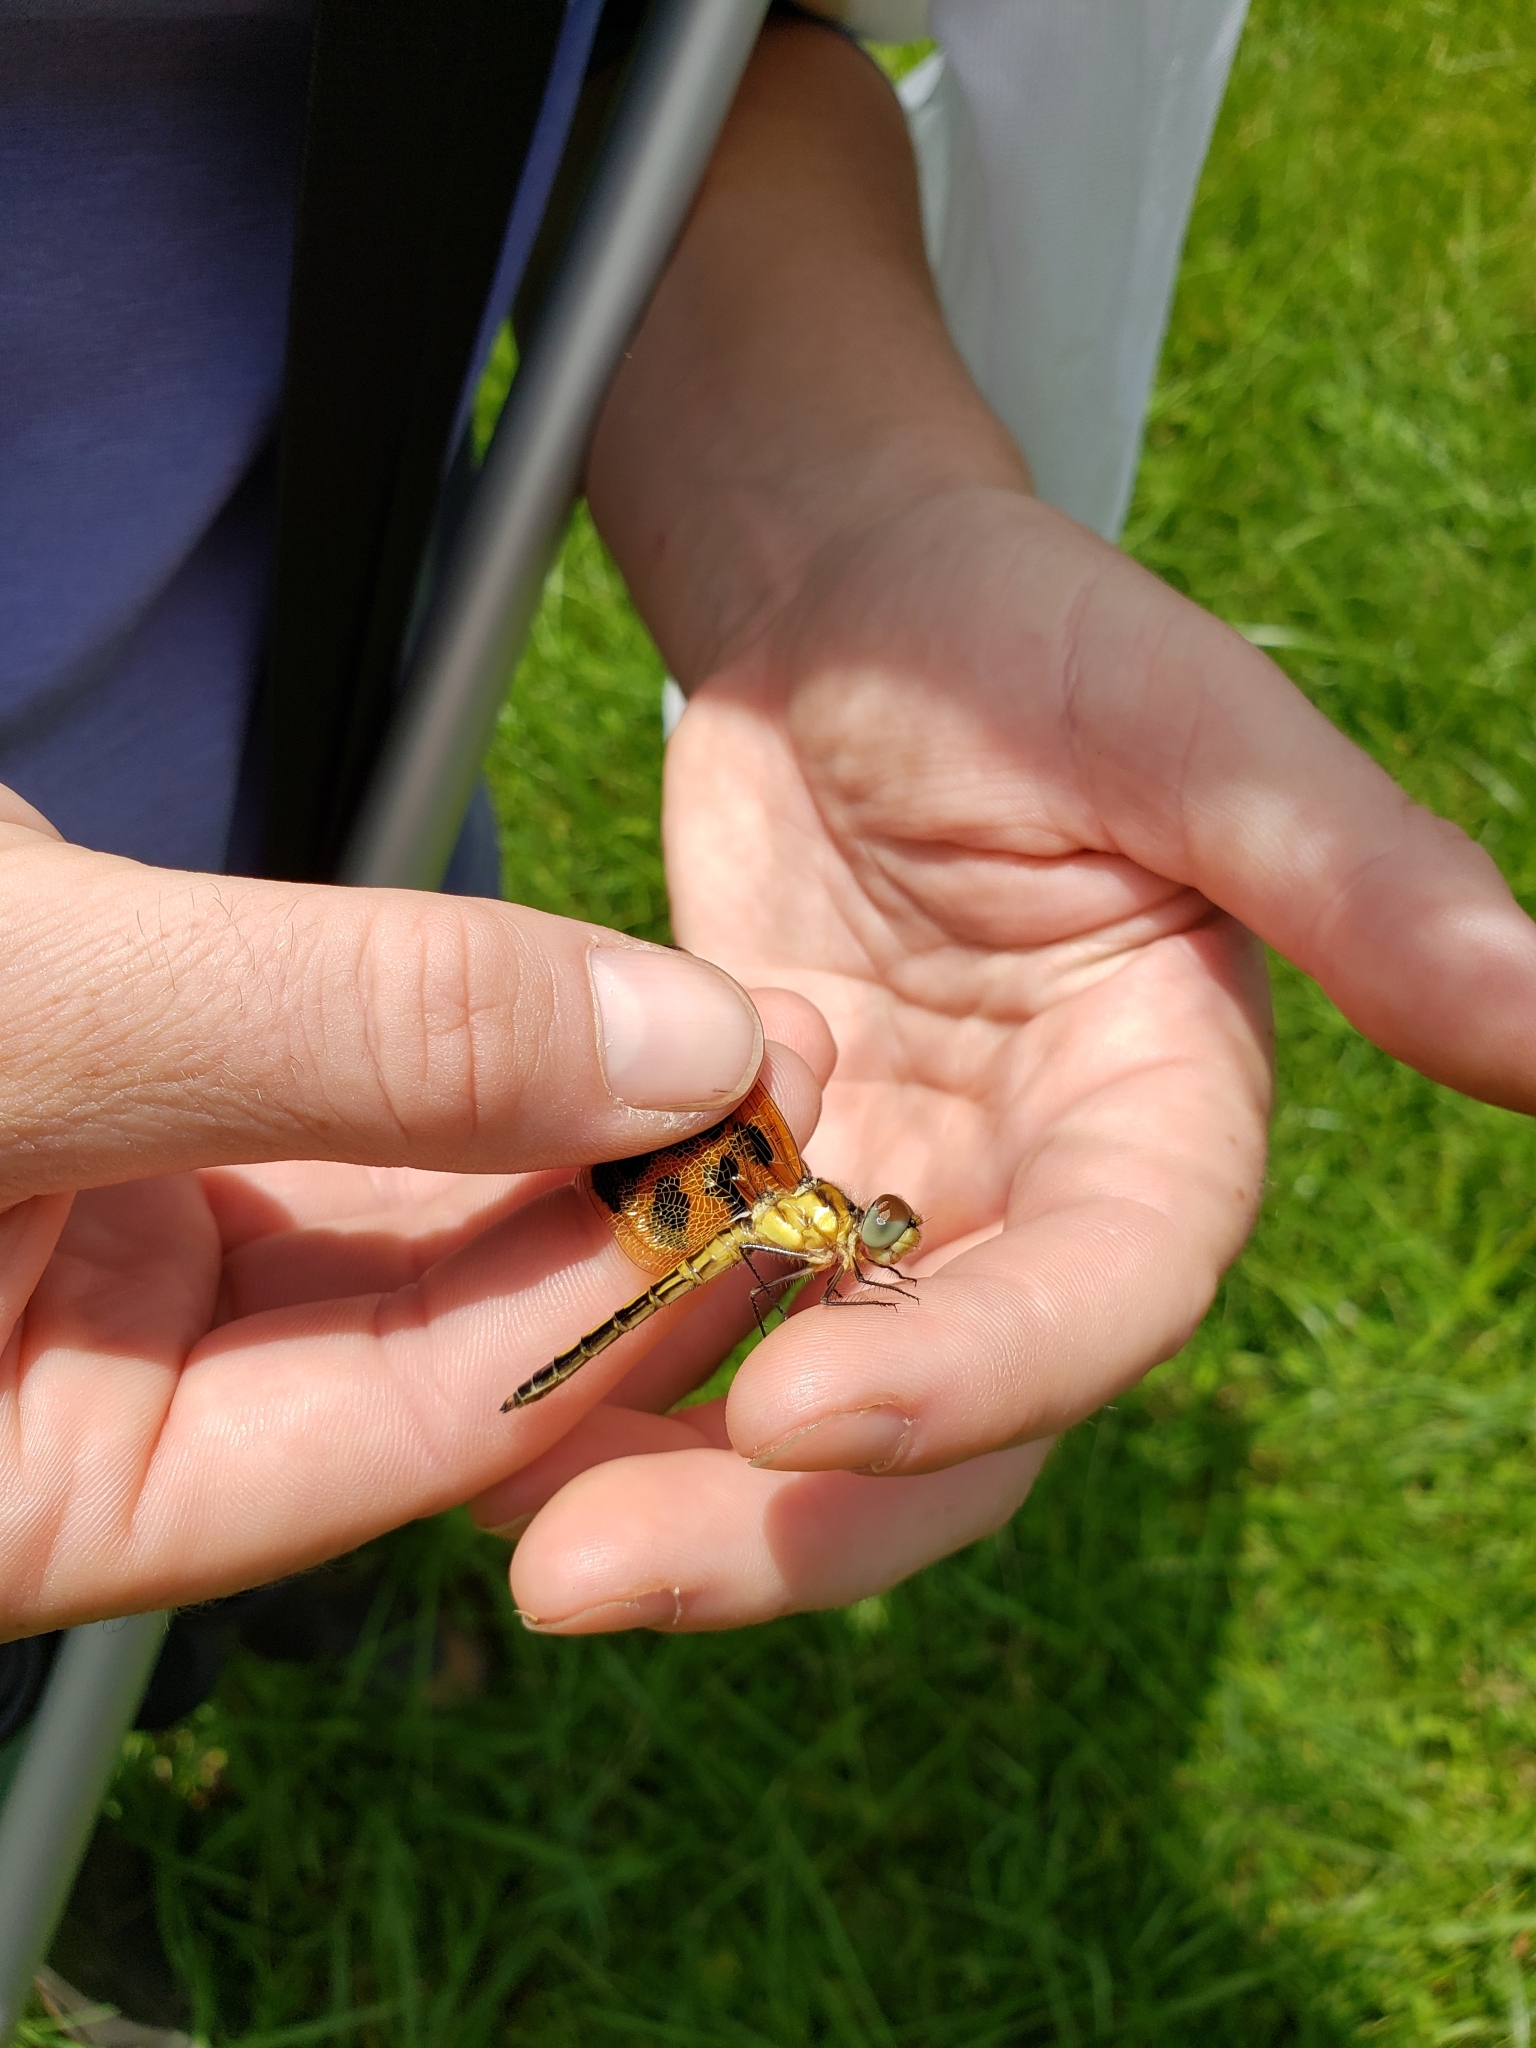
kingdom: Animalia
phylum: Arthropoda
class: Insecta
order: Odonata
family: Libellulidae
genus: Celithemis
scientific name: Celithemis eponina
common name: Halloween pennant
